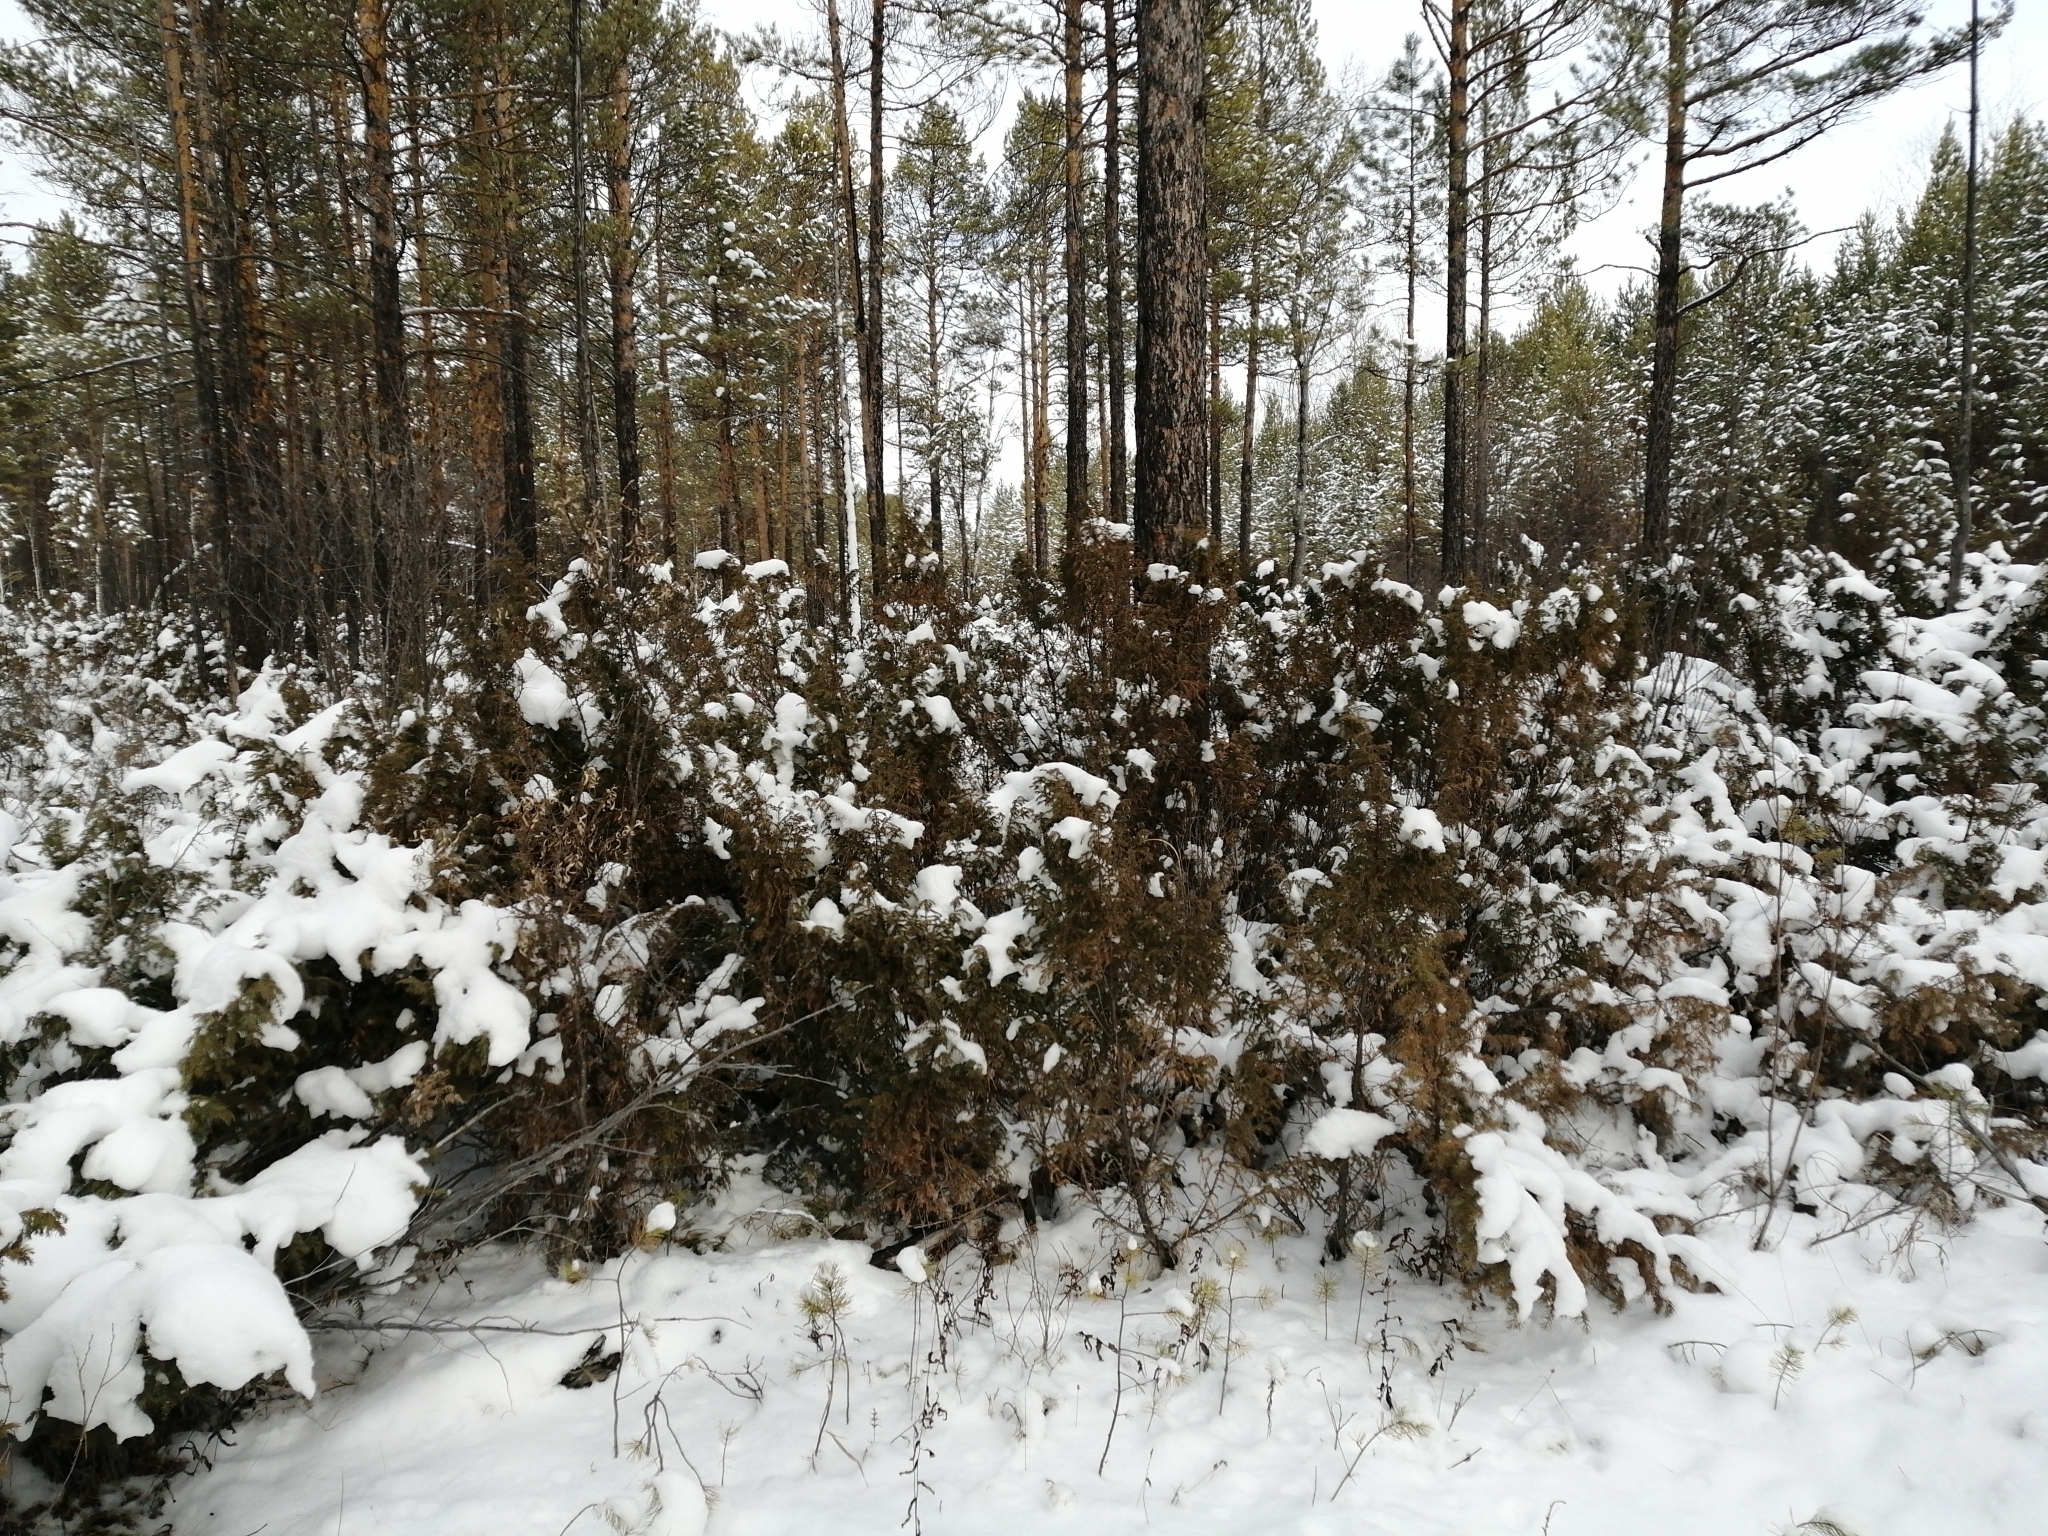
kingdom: Plantae
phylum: Tracheophyta
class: Pinopsida
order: Pinales
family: Cupressaceae
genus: Juniperus
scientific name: Juniperus communis
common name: Common juniper
